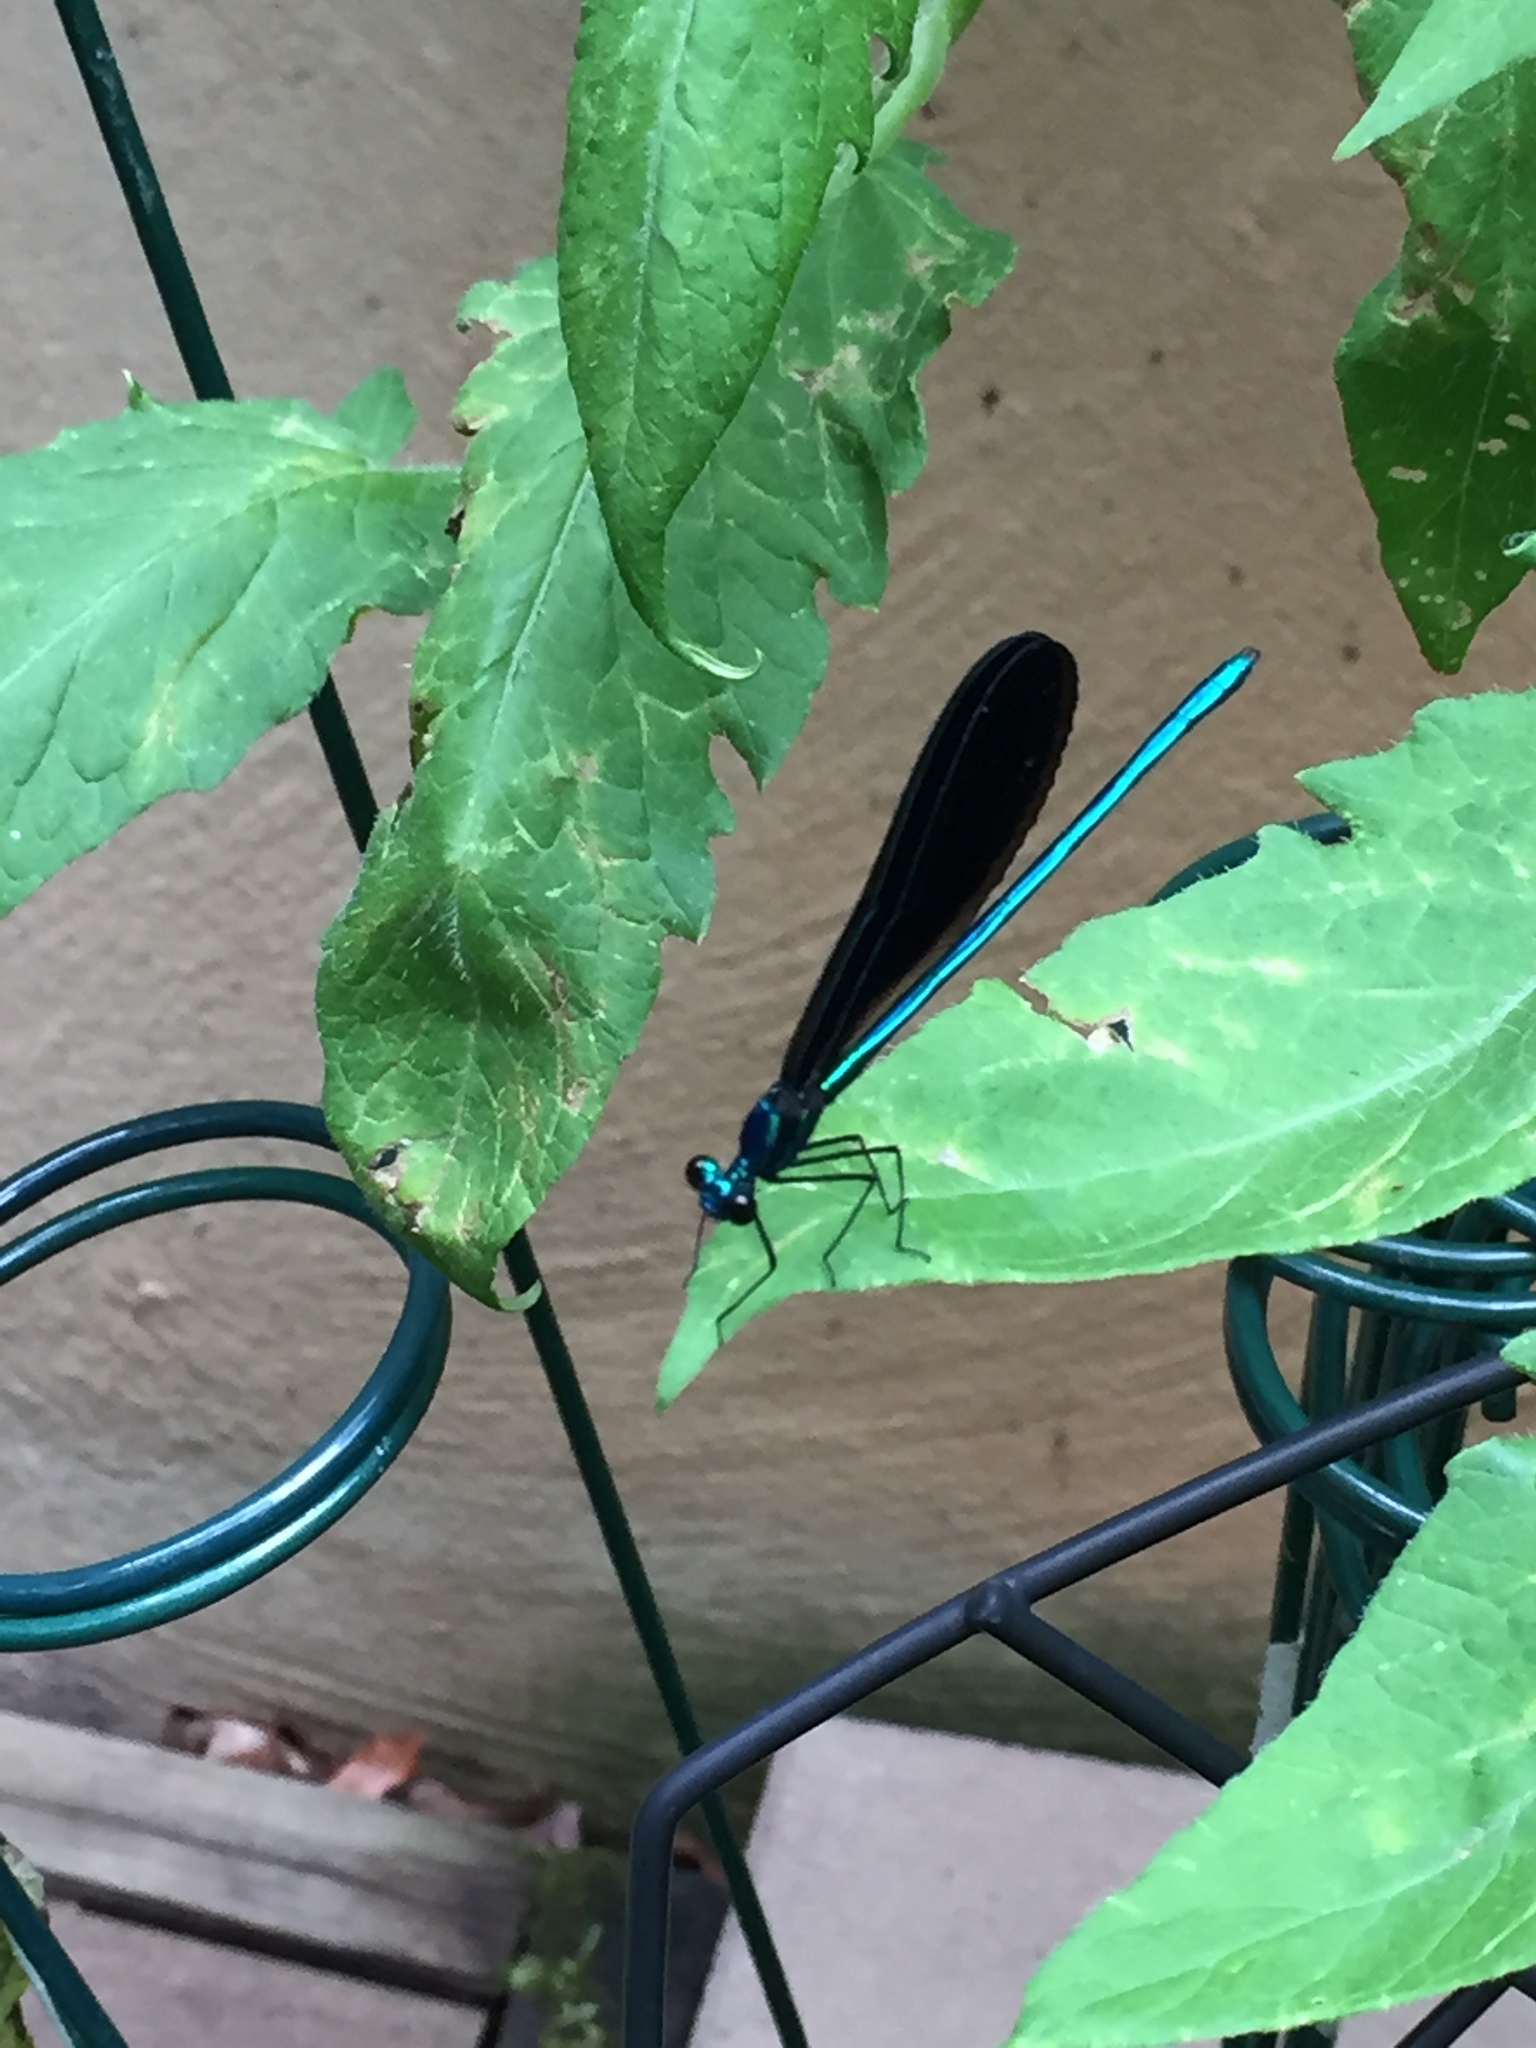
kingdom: Animalia
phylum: Arthropoda
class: Insecta
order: Odonata
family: Calopterygidae
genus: Calopteryx
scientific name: Calopteryx maculata
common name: Ebony jewelwing
